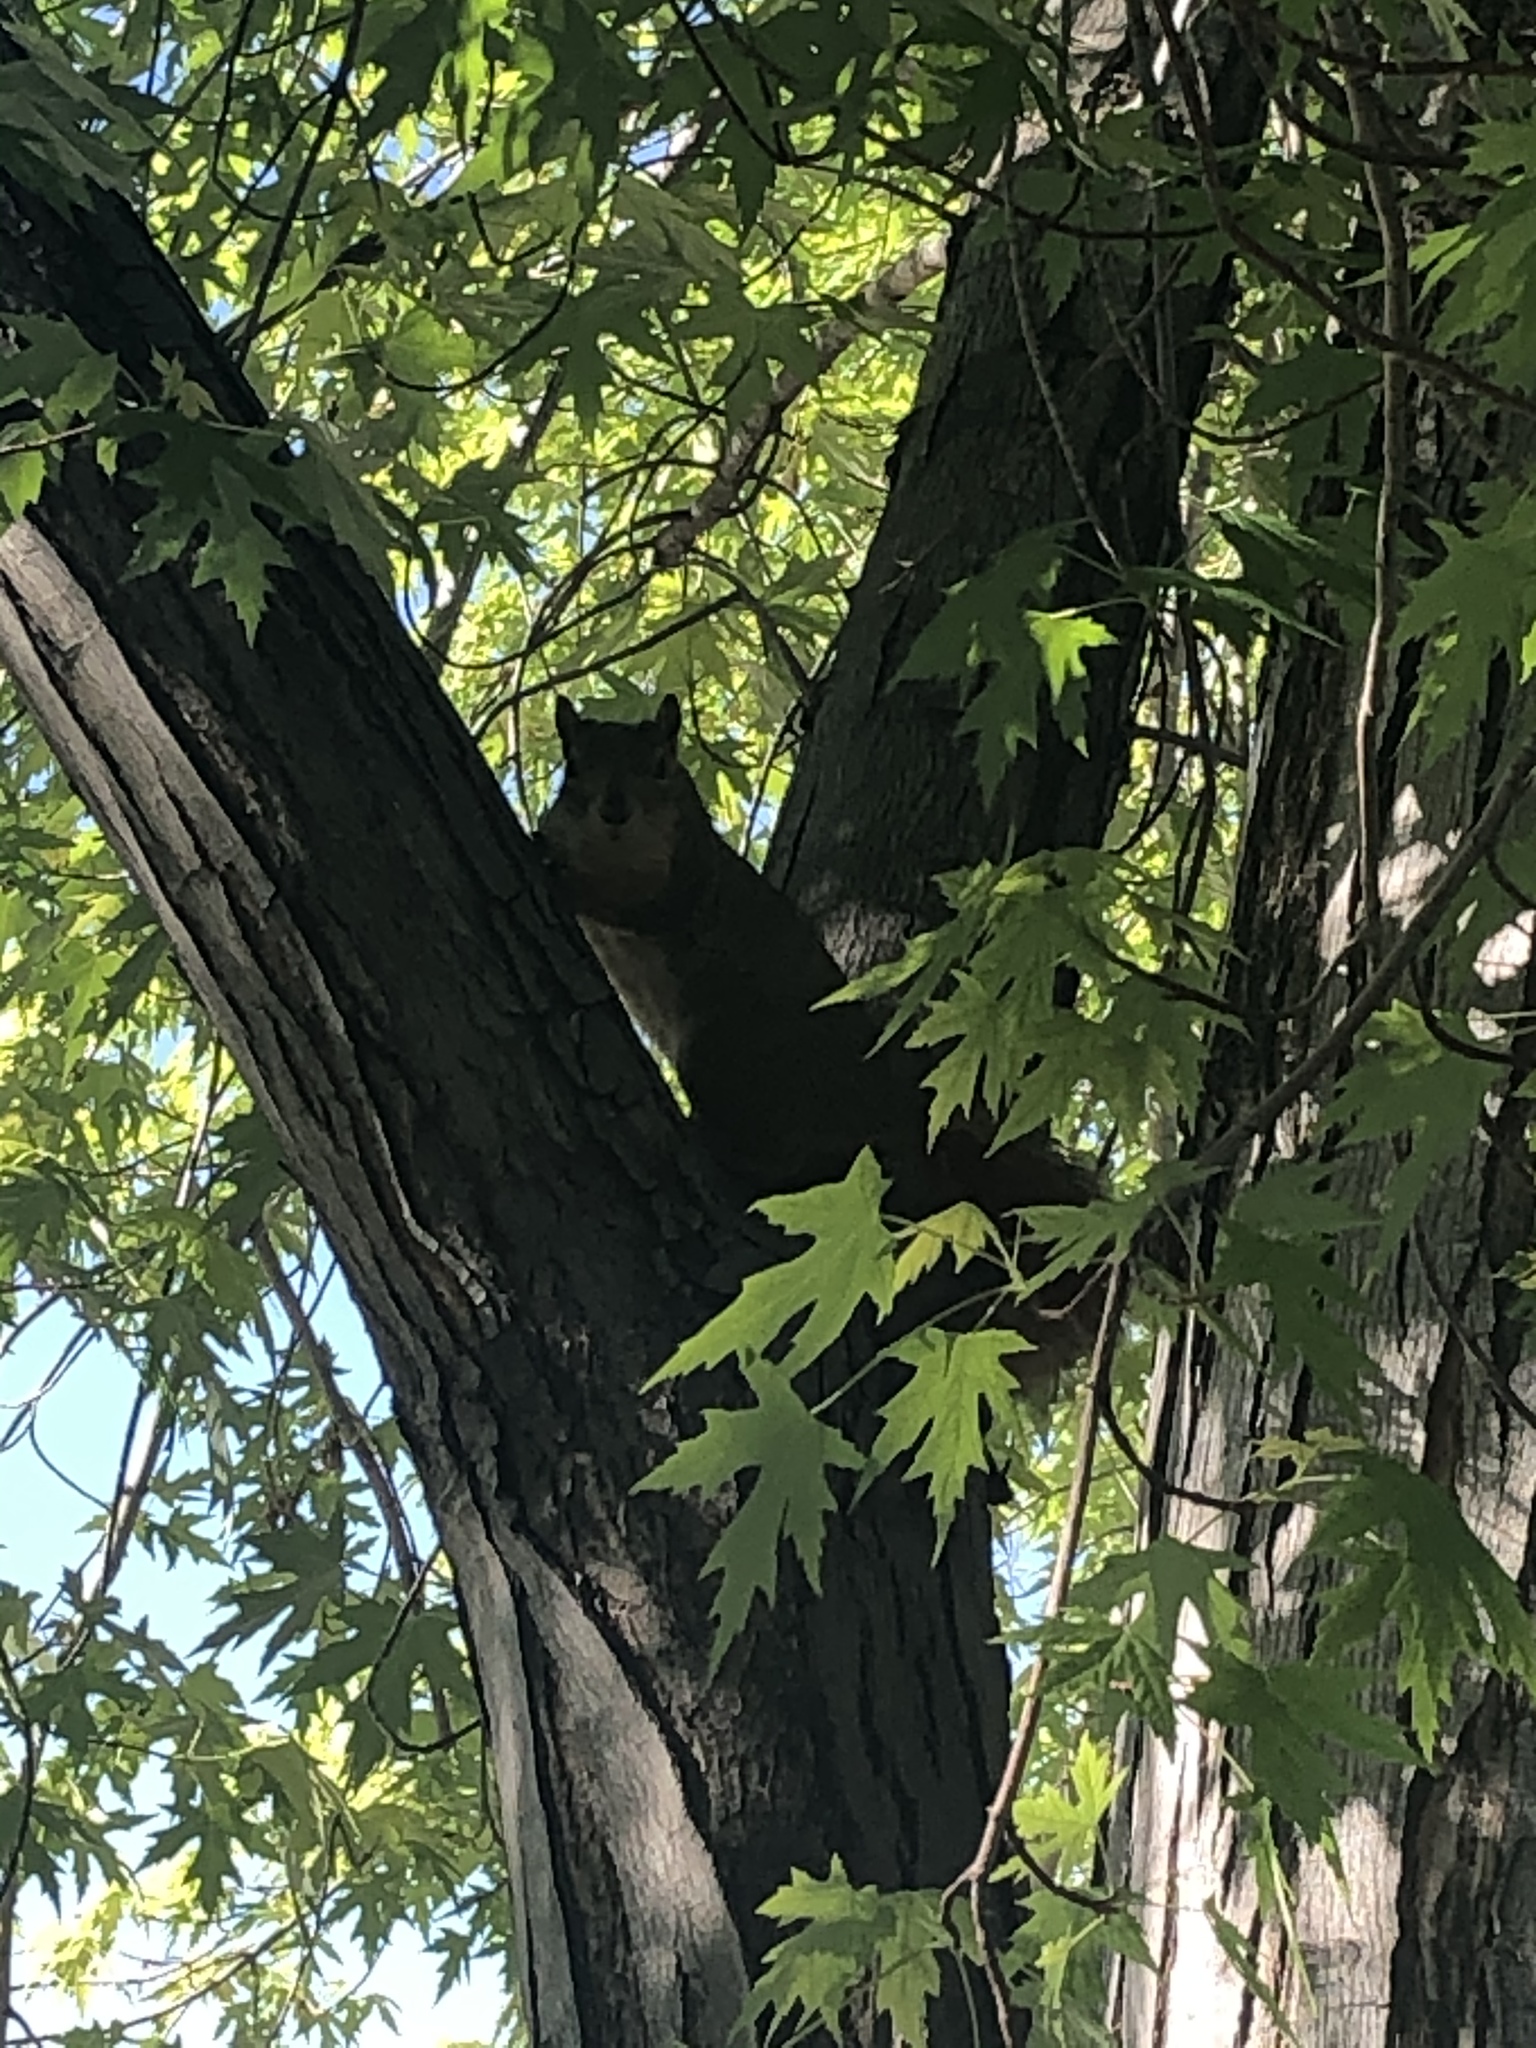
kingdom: Animalia
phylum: Chordata
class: Mammalia
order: Rodentia
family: Sciuridae
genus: Sciurus
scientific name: Sciurus niger
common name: Fox squirrel
